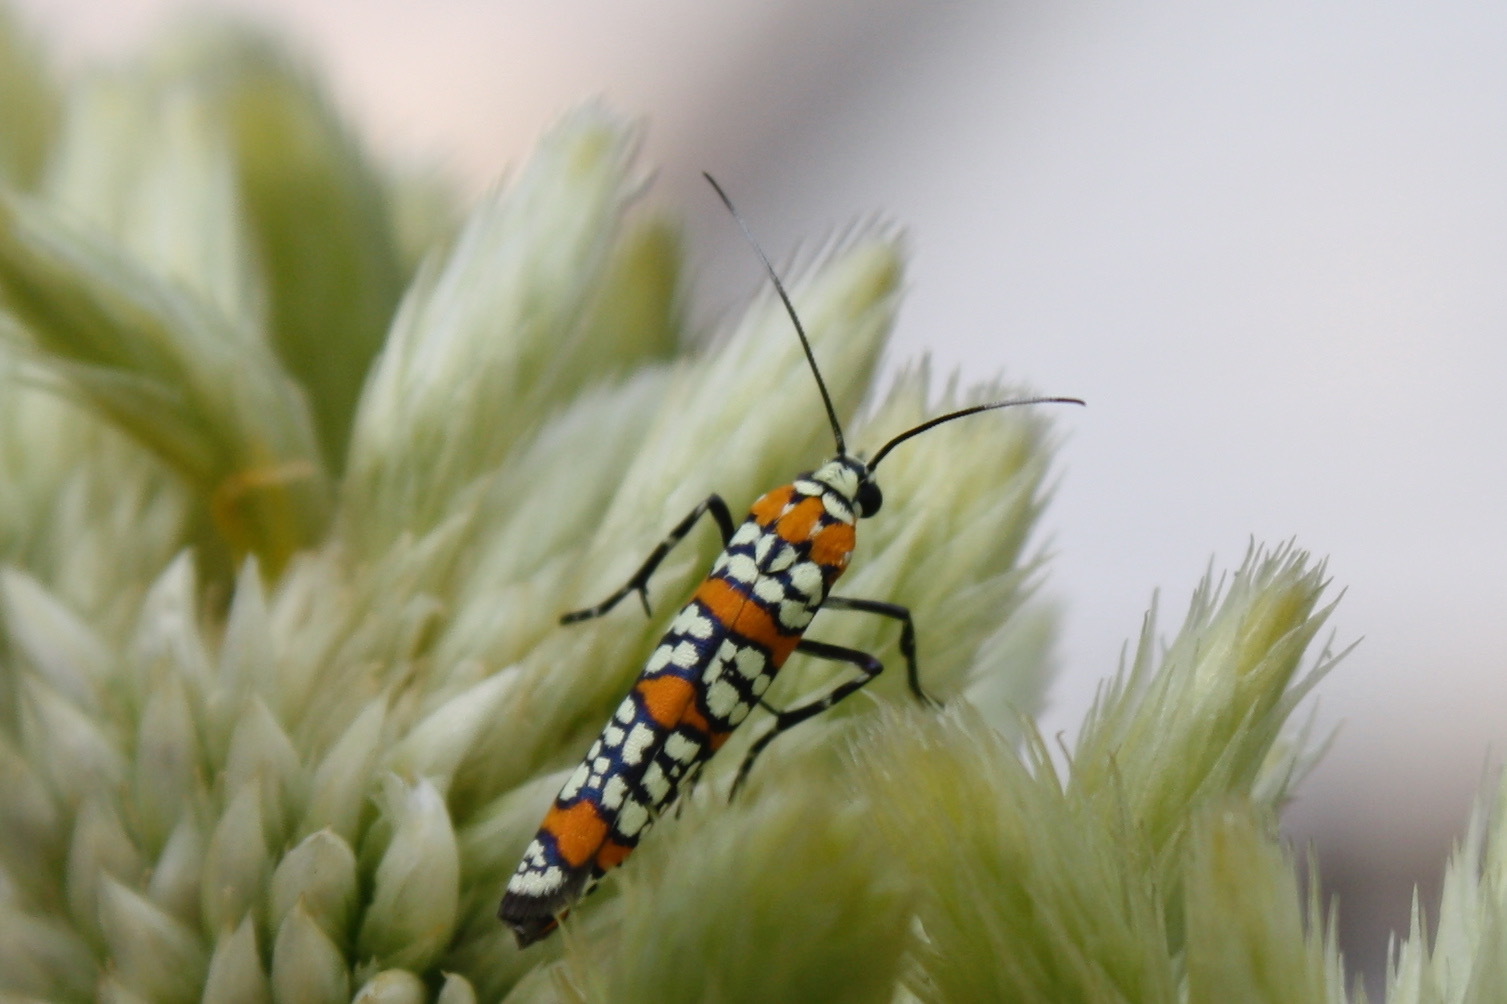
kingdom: Animalia
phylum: Arthropoda
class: Insecta
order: Lepidoptera
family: Attevidae
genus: Atteva
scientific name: Atteva punctella
